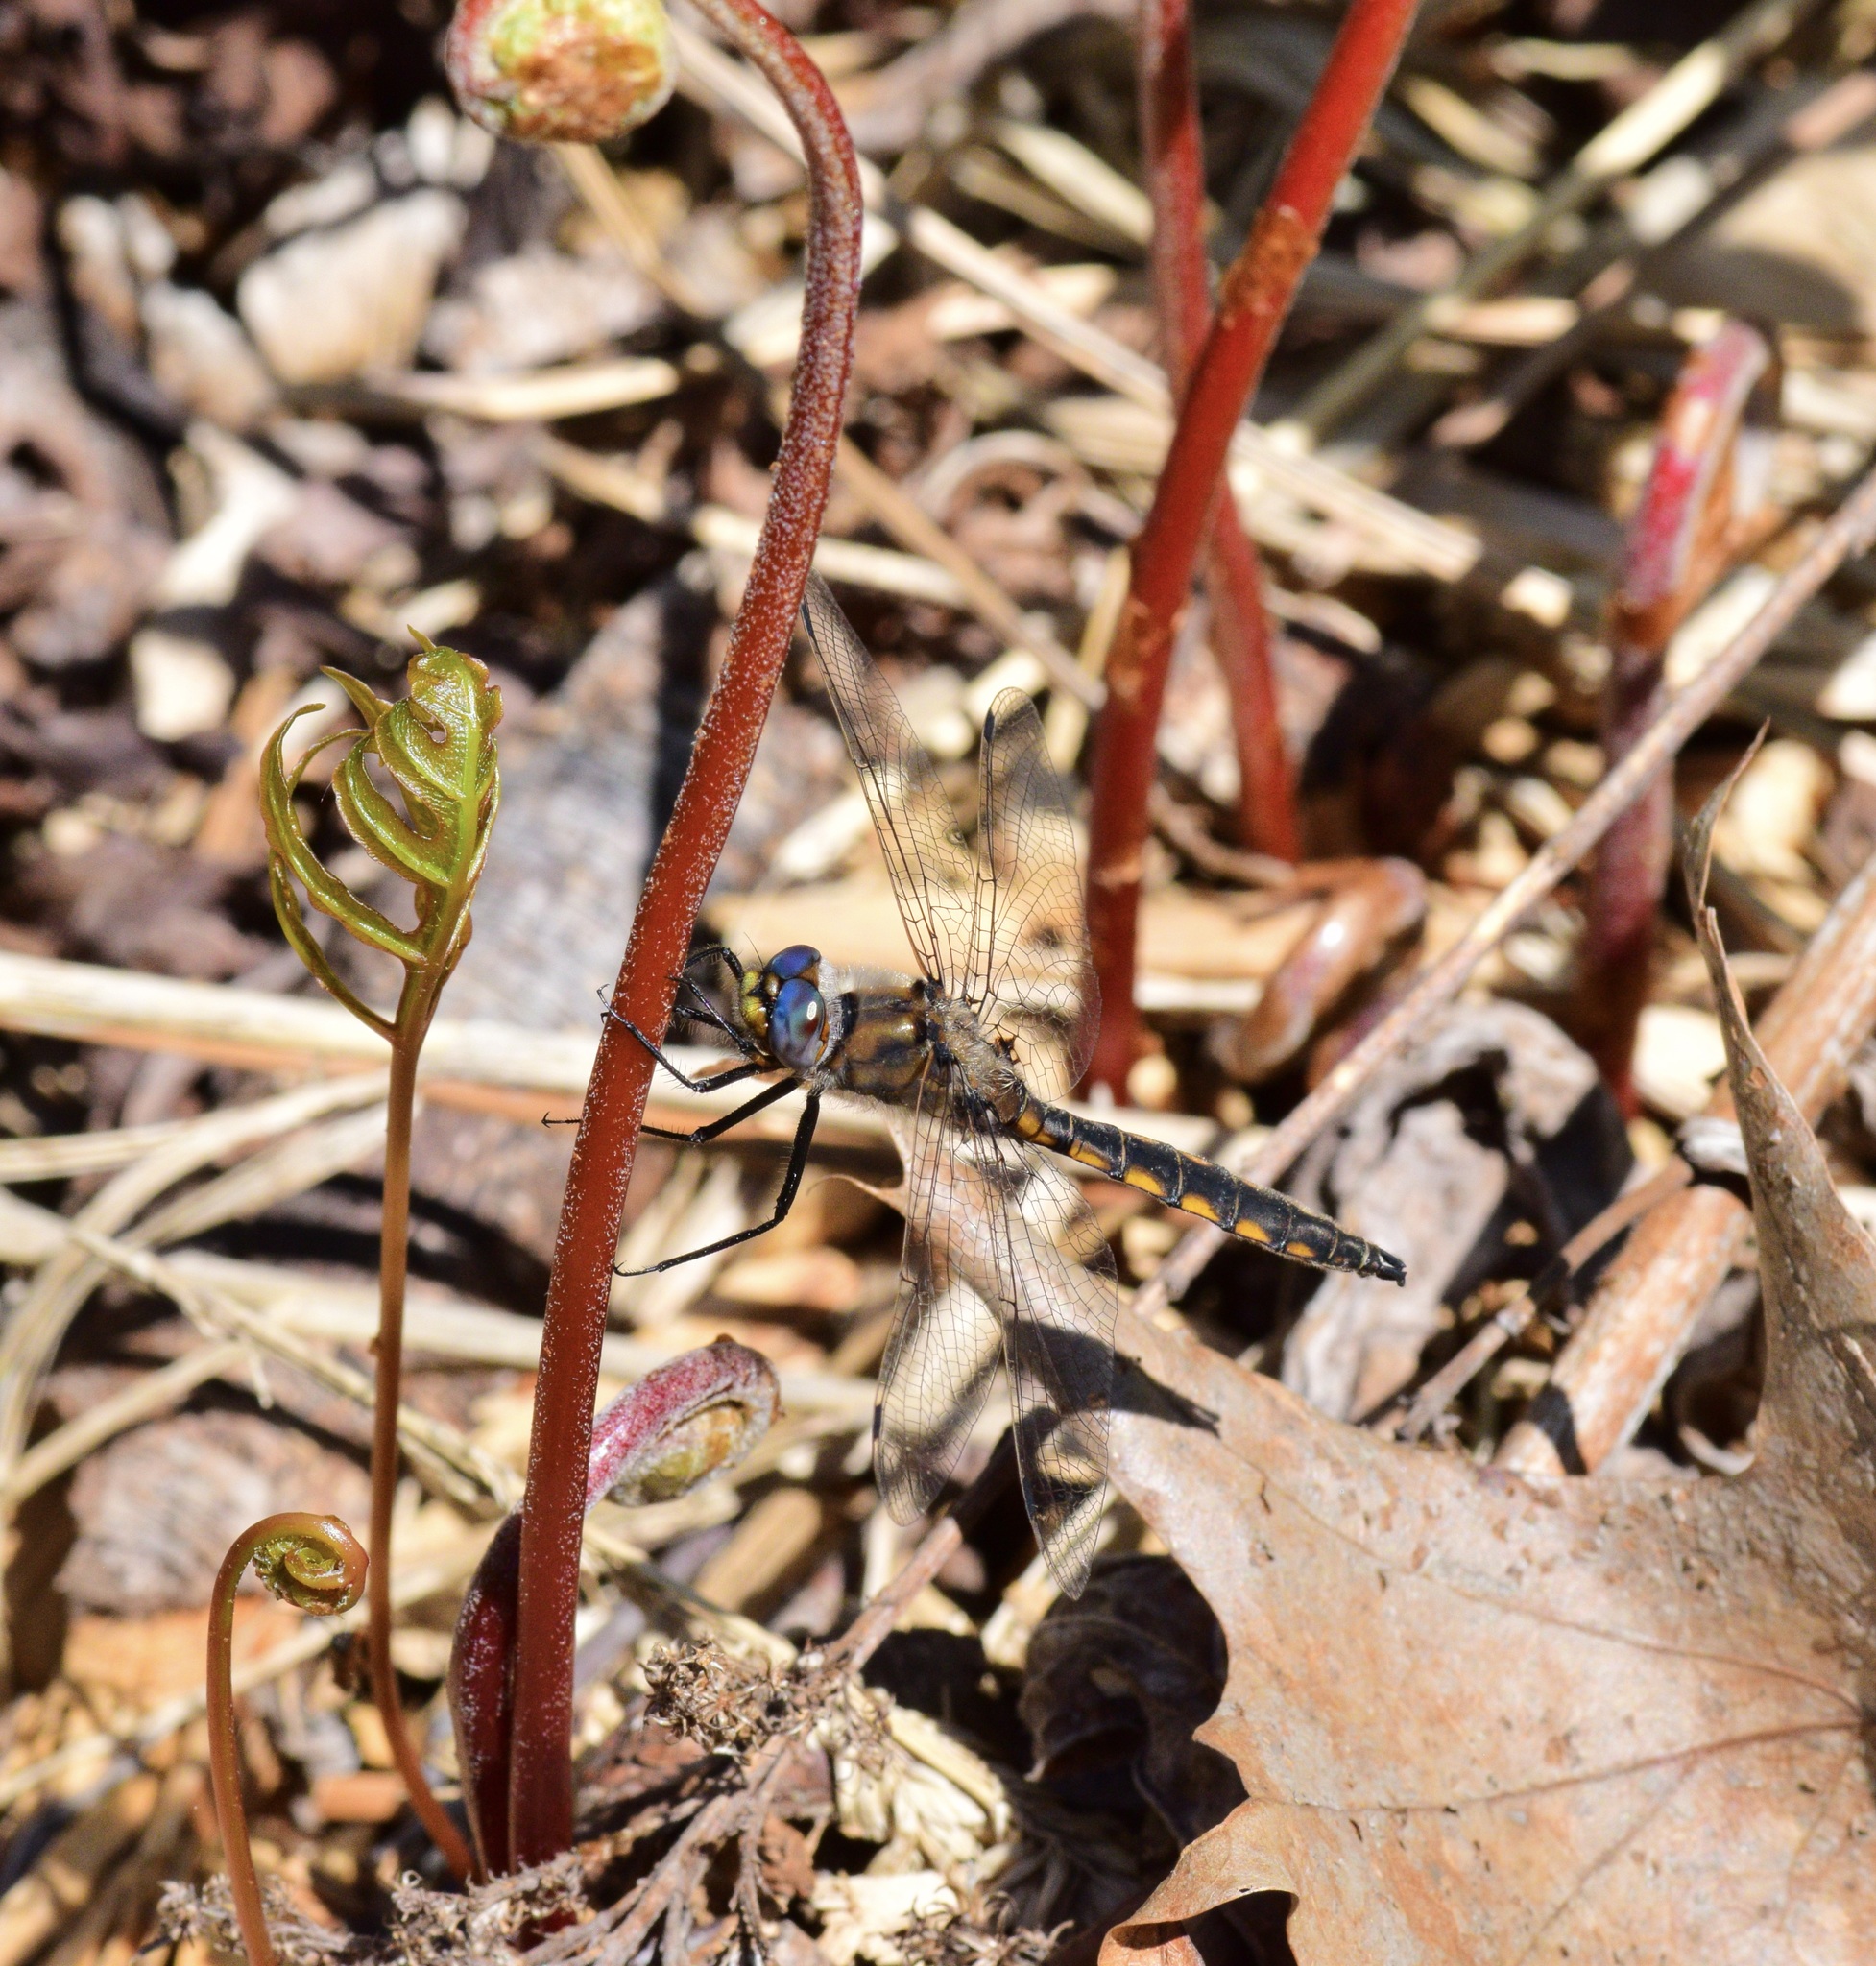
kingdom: Animalia
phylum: Arthropoda
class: Insecta
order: Odonata
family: Corduliidae
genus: Epitheca
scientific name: Epitheca canis
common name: Beaverpond baskettail
